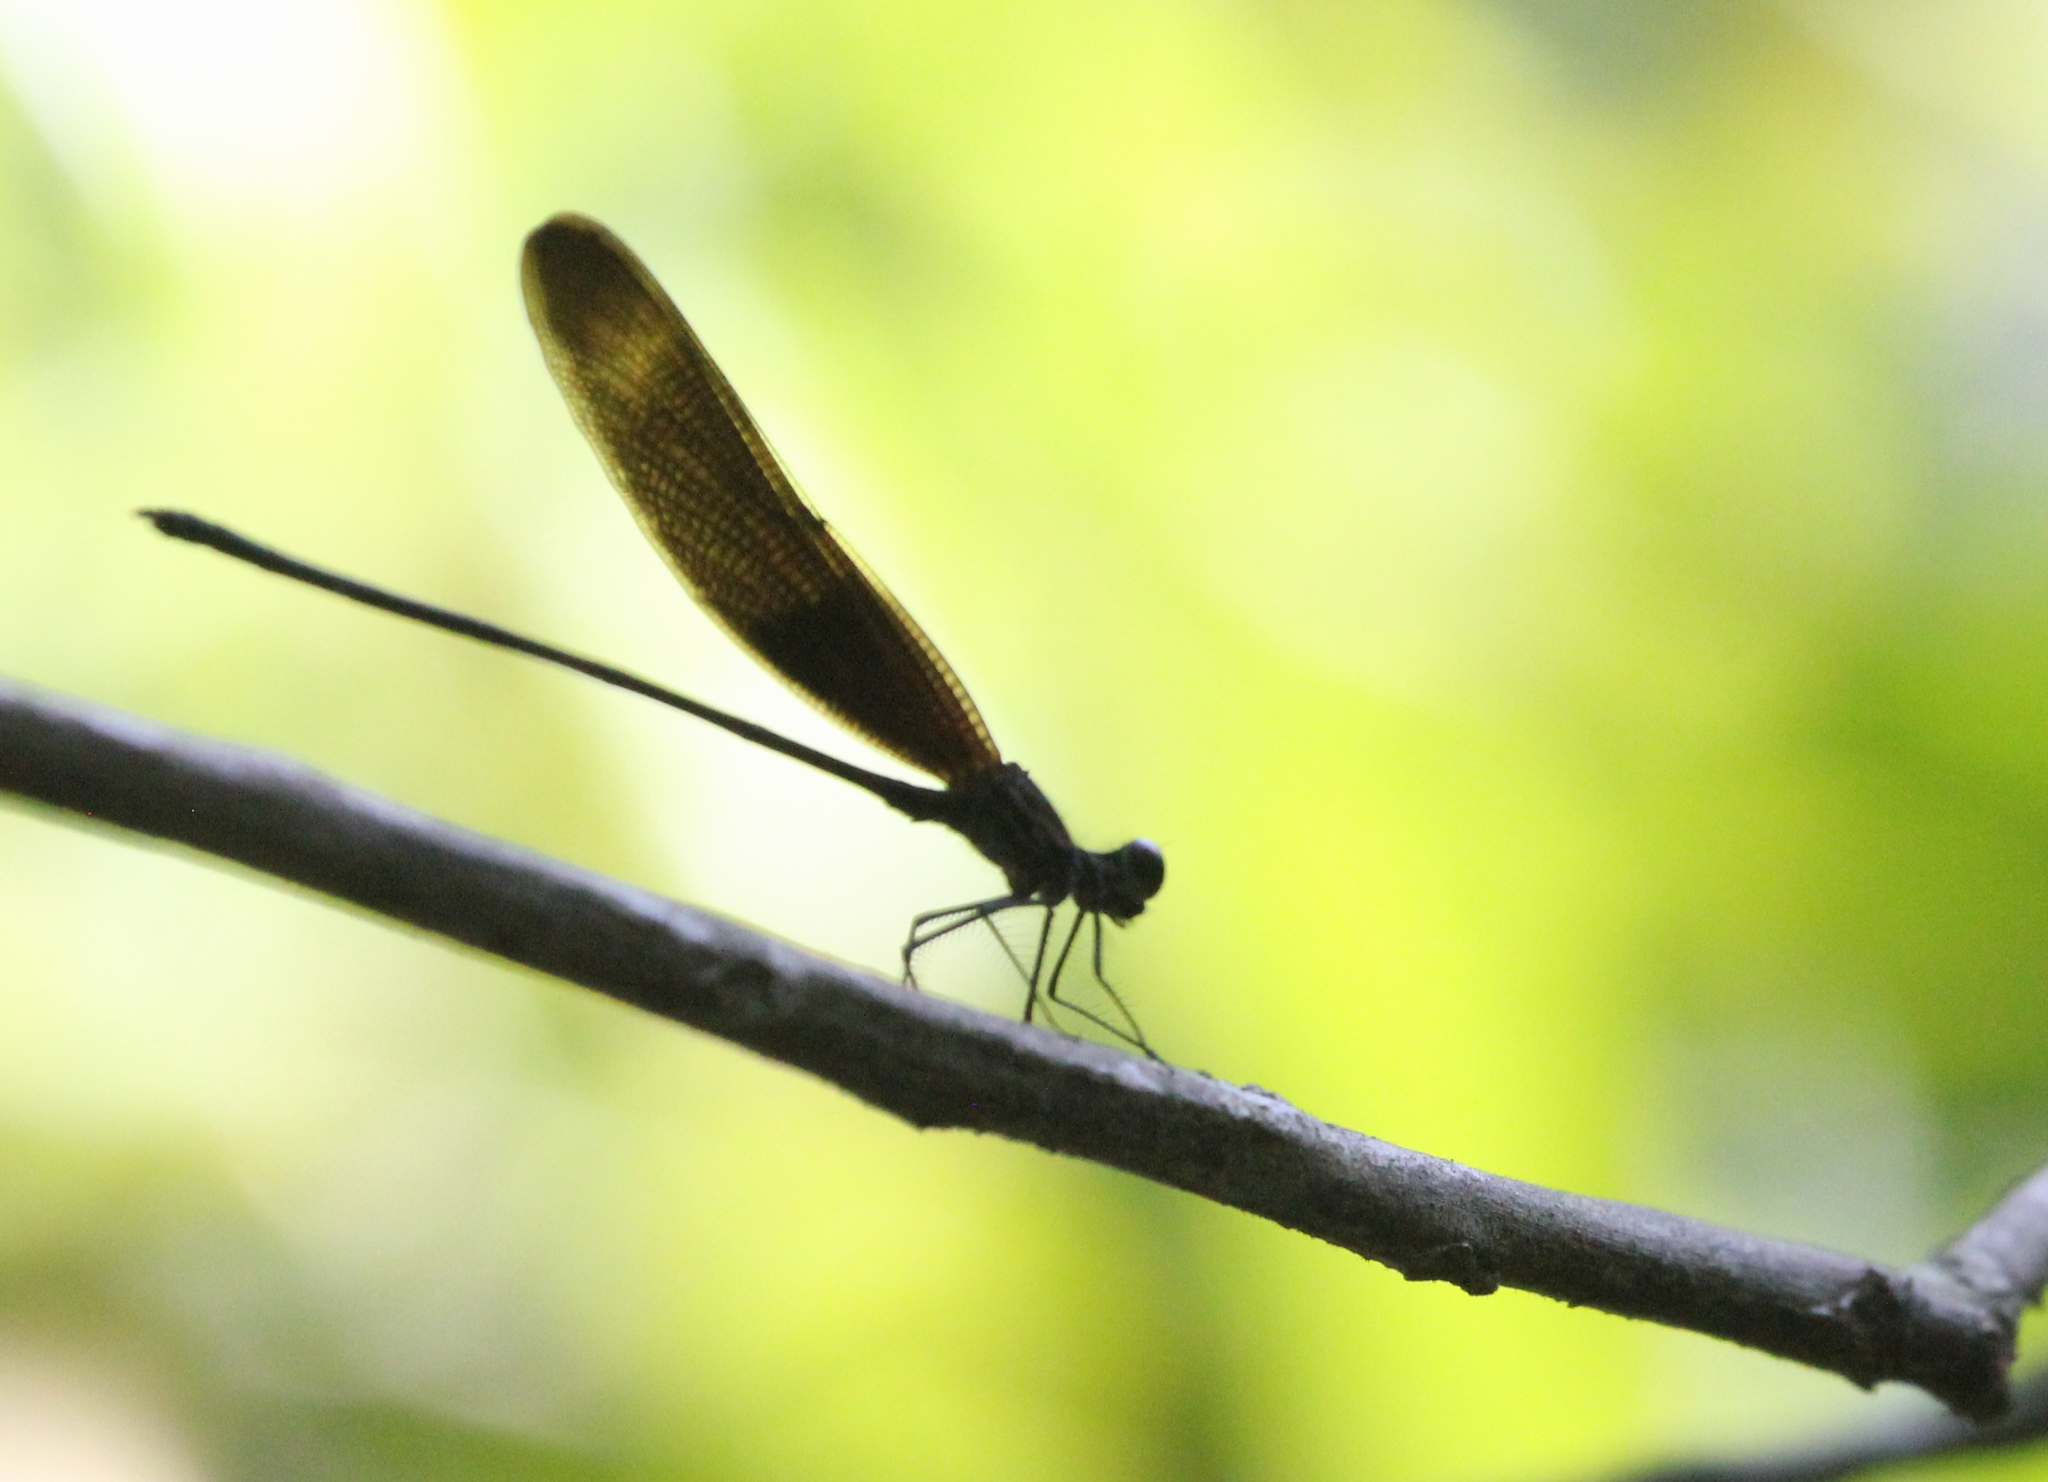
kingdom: Animalia
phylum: Arthropoda
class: Insecta
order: Odonata
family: Calopterygidae
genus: Hetaerina
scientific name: Hetaerina titia
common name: Smoky rubyspot
